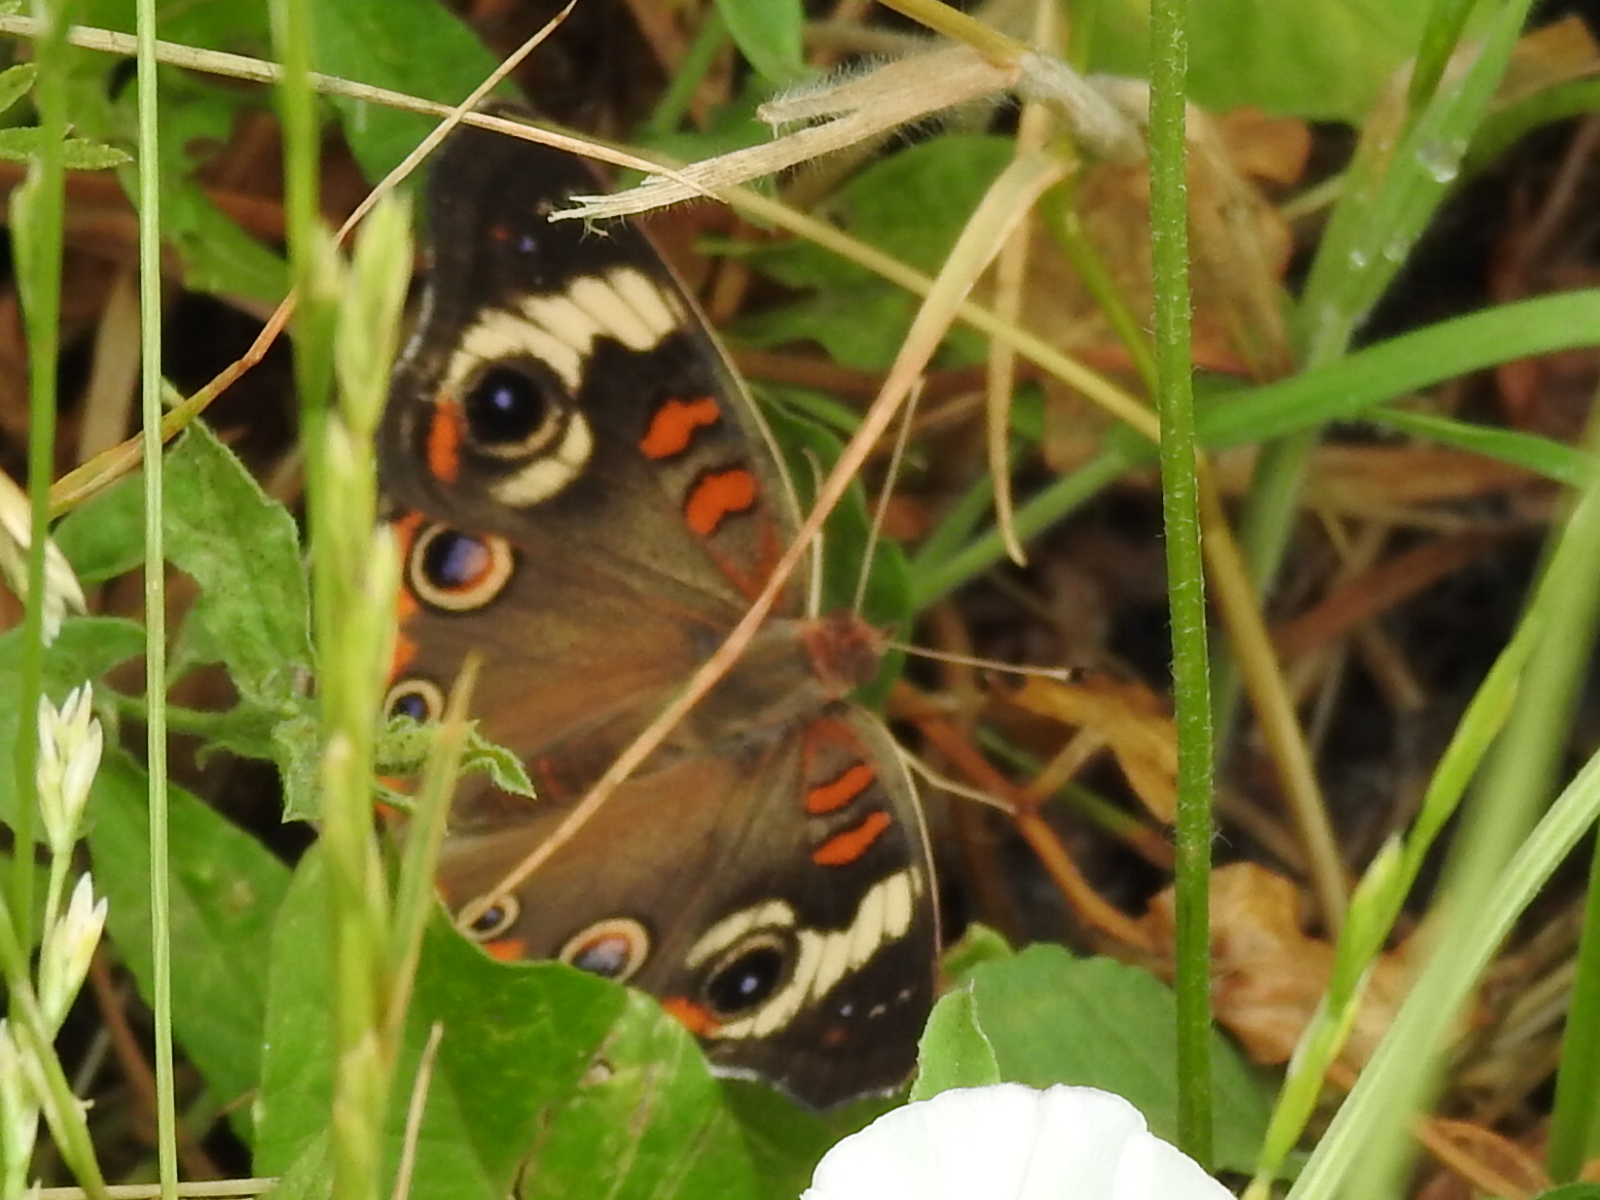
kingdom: Animalia
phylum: Arthropoda
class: Insecta
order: Lepidoptera
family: Nymphalidae
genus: Junonia
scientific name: Junonia coenia
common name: Common buckeye
